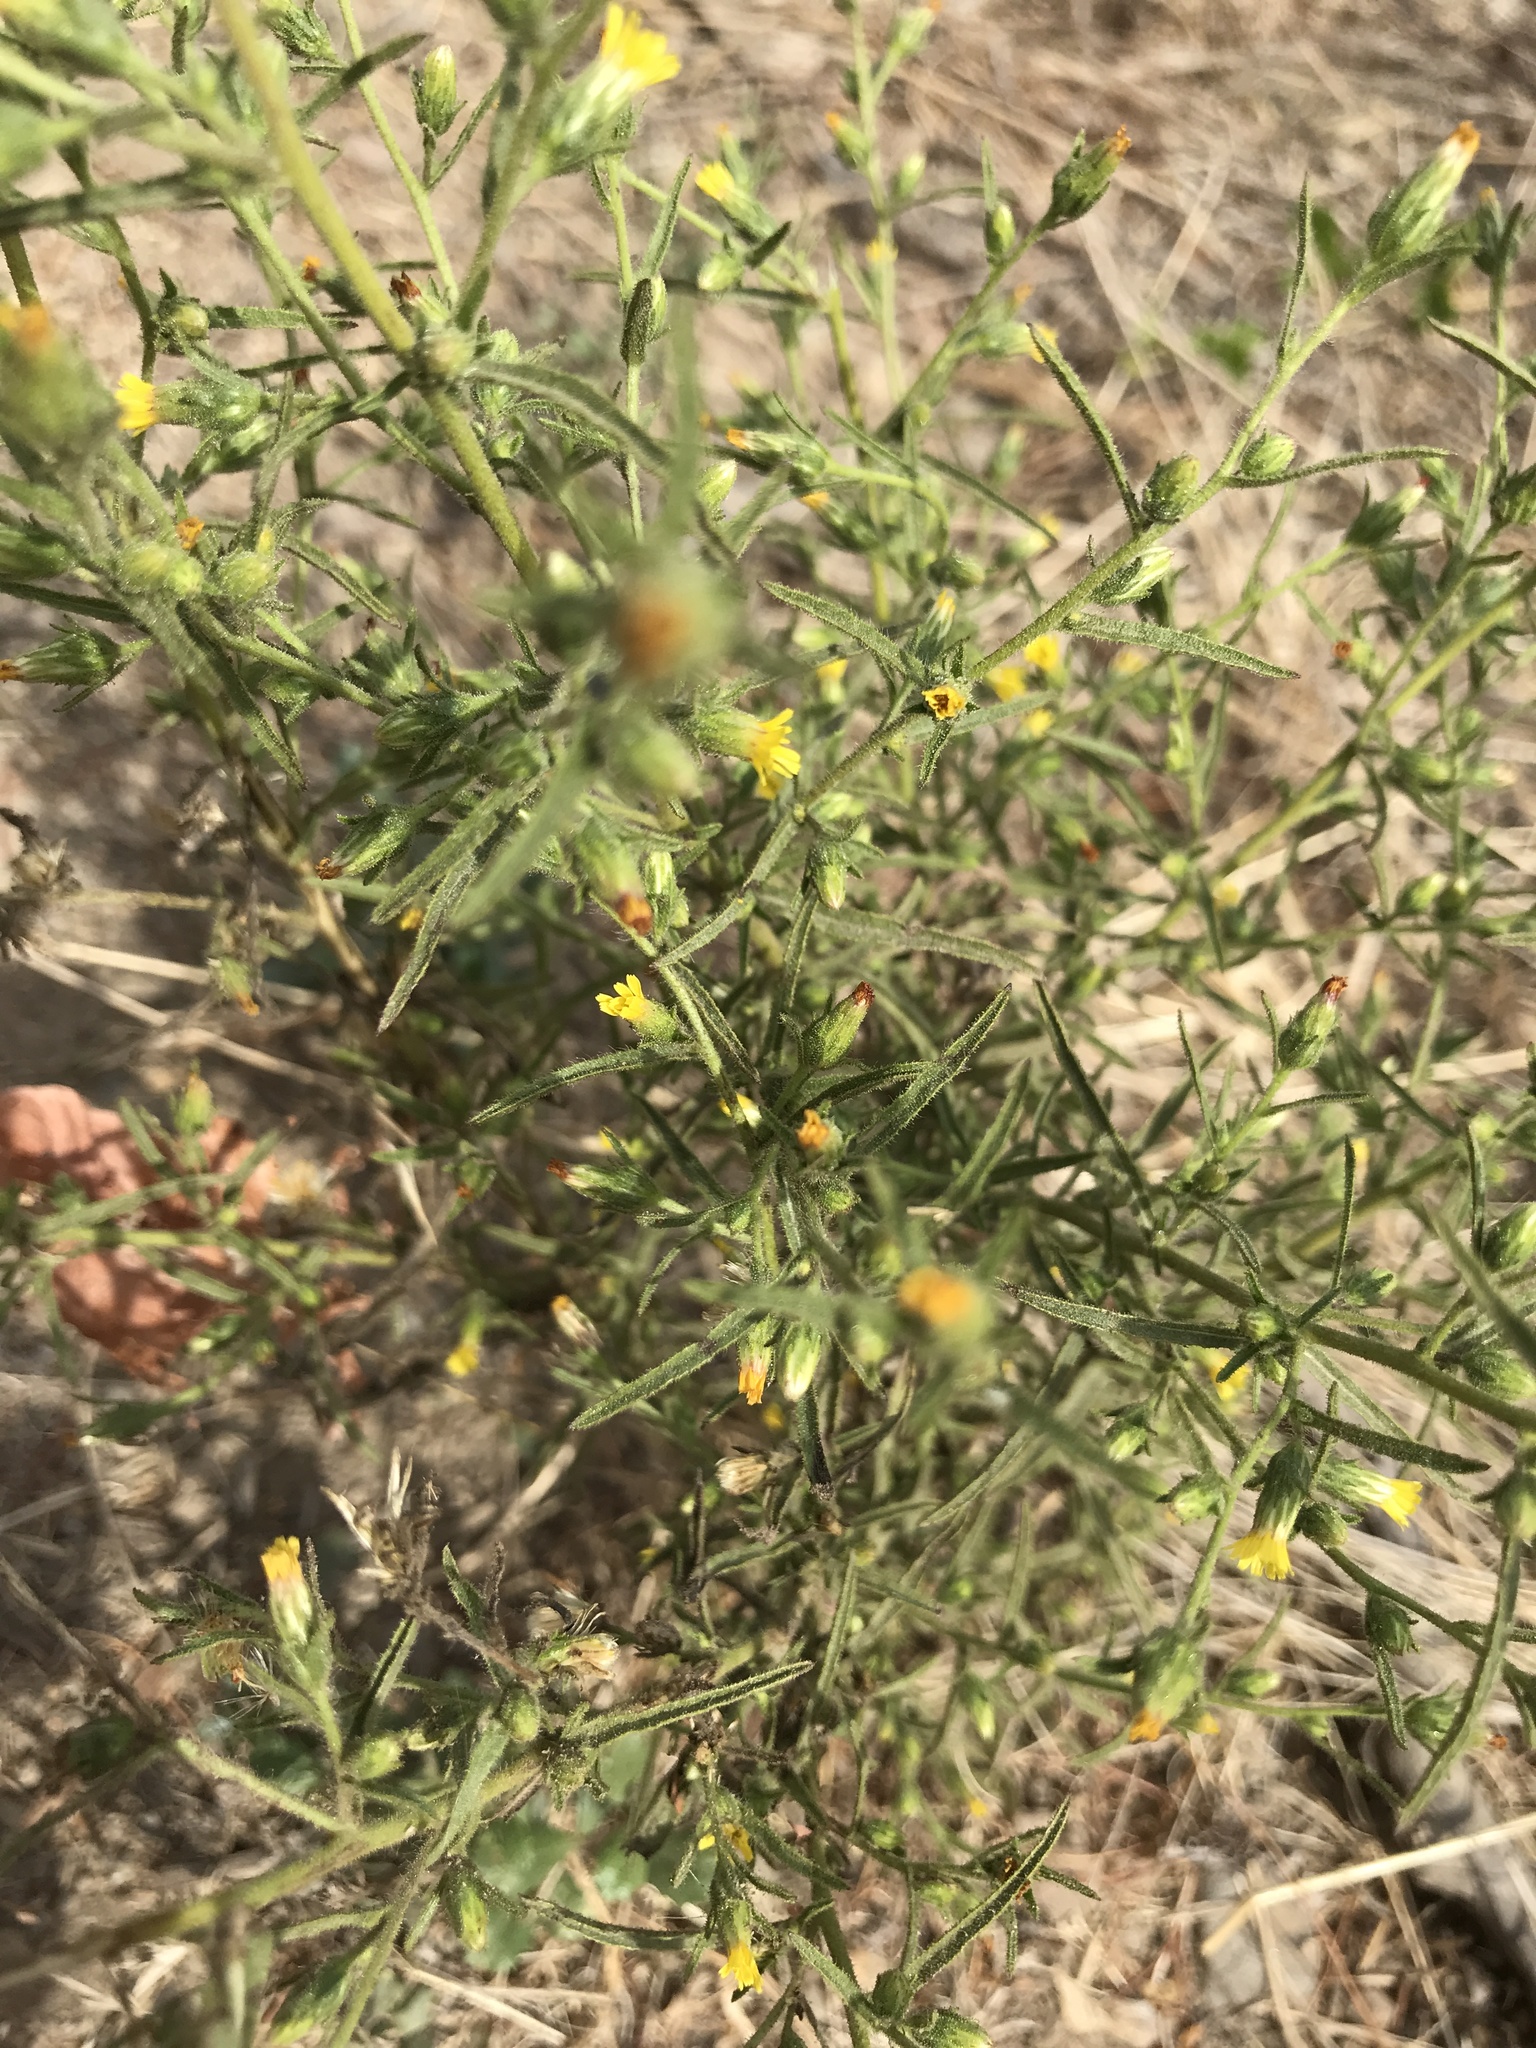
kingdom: Plantae
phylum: Tracheophyta
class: Magnoliopsida
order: Asterales
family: Asteraceae
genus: Dittrichia
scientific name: Dittrichia graveolens
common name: Stinking fleabane
